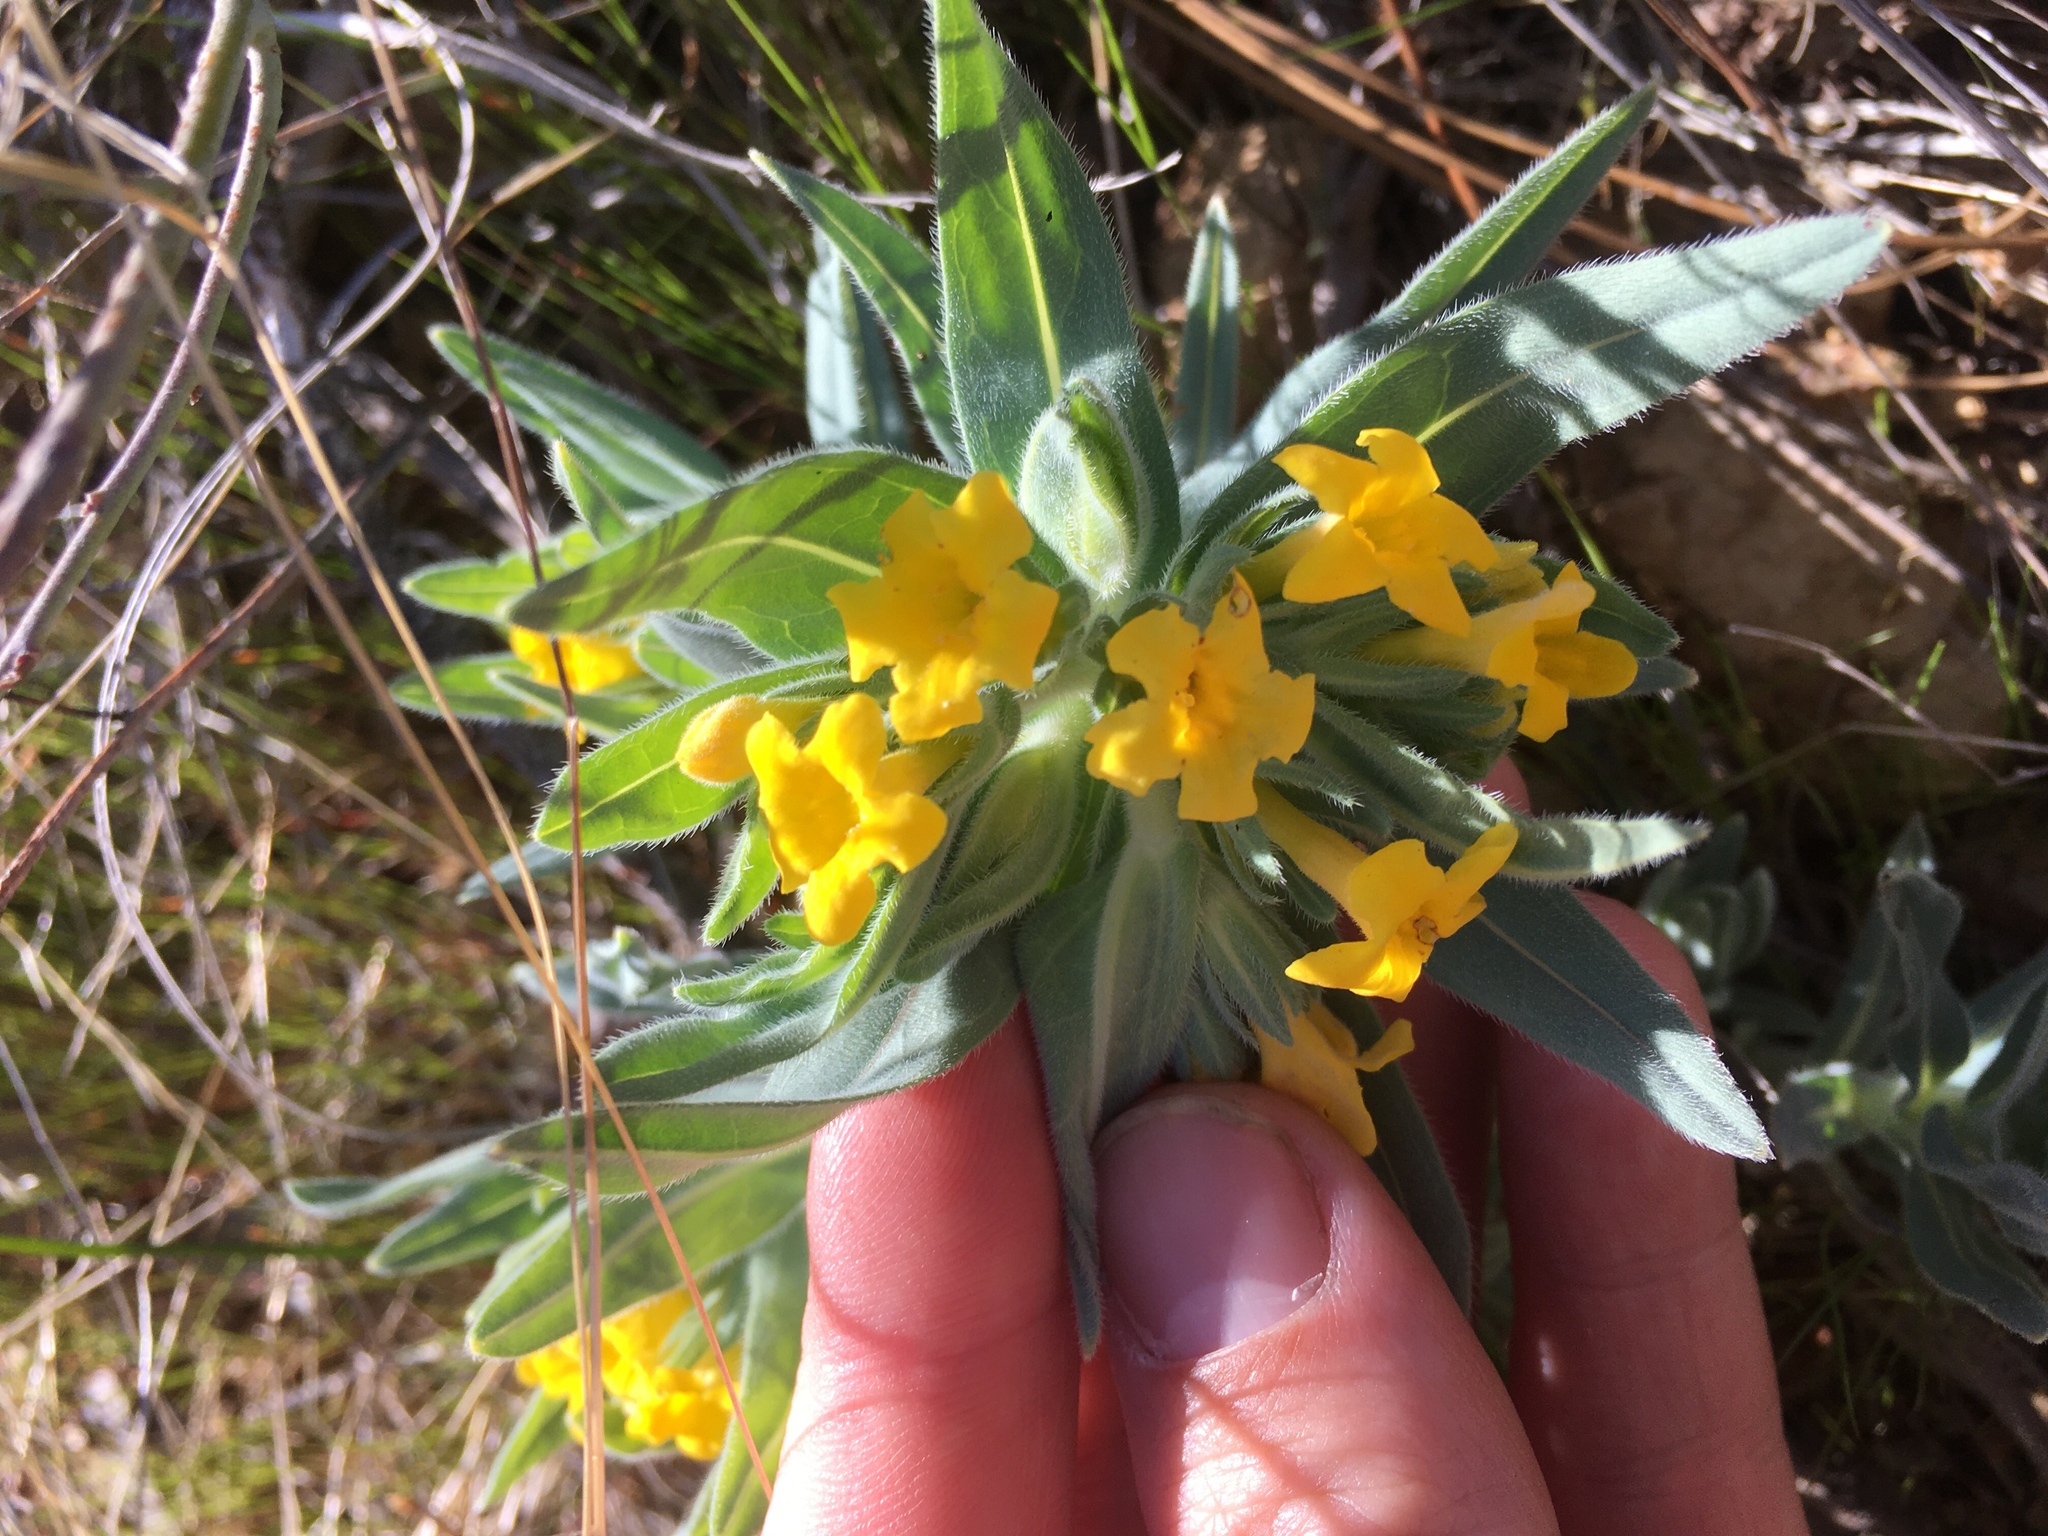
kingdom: Plantae
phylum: Tracheophyta
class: Magnoliopsida
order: Boraginales
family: Boraginaceae
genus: Lithospermum
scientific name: Lithospermum californicum
